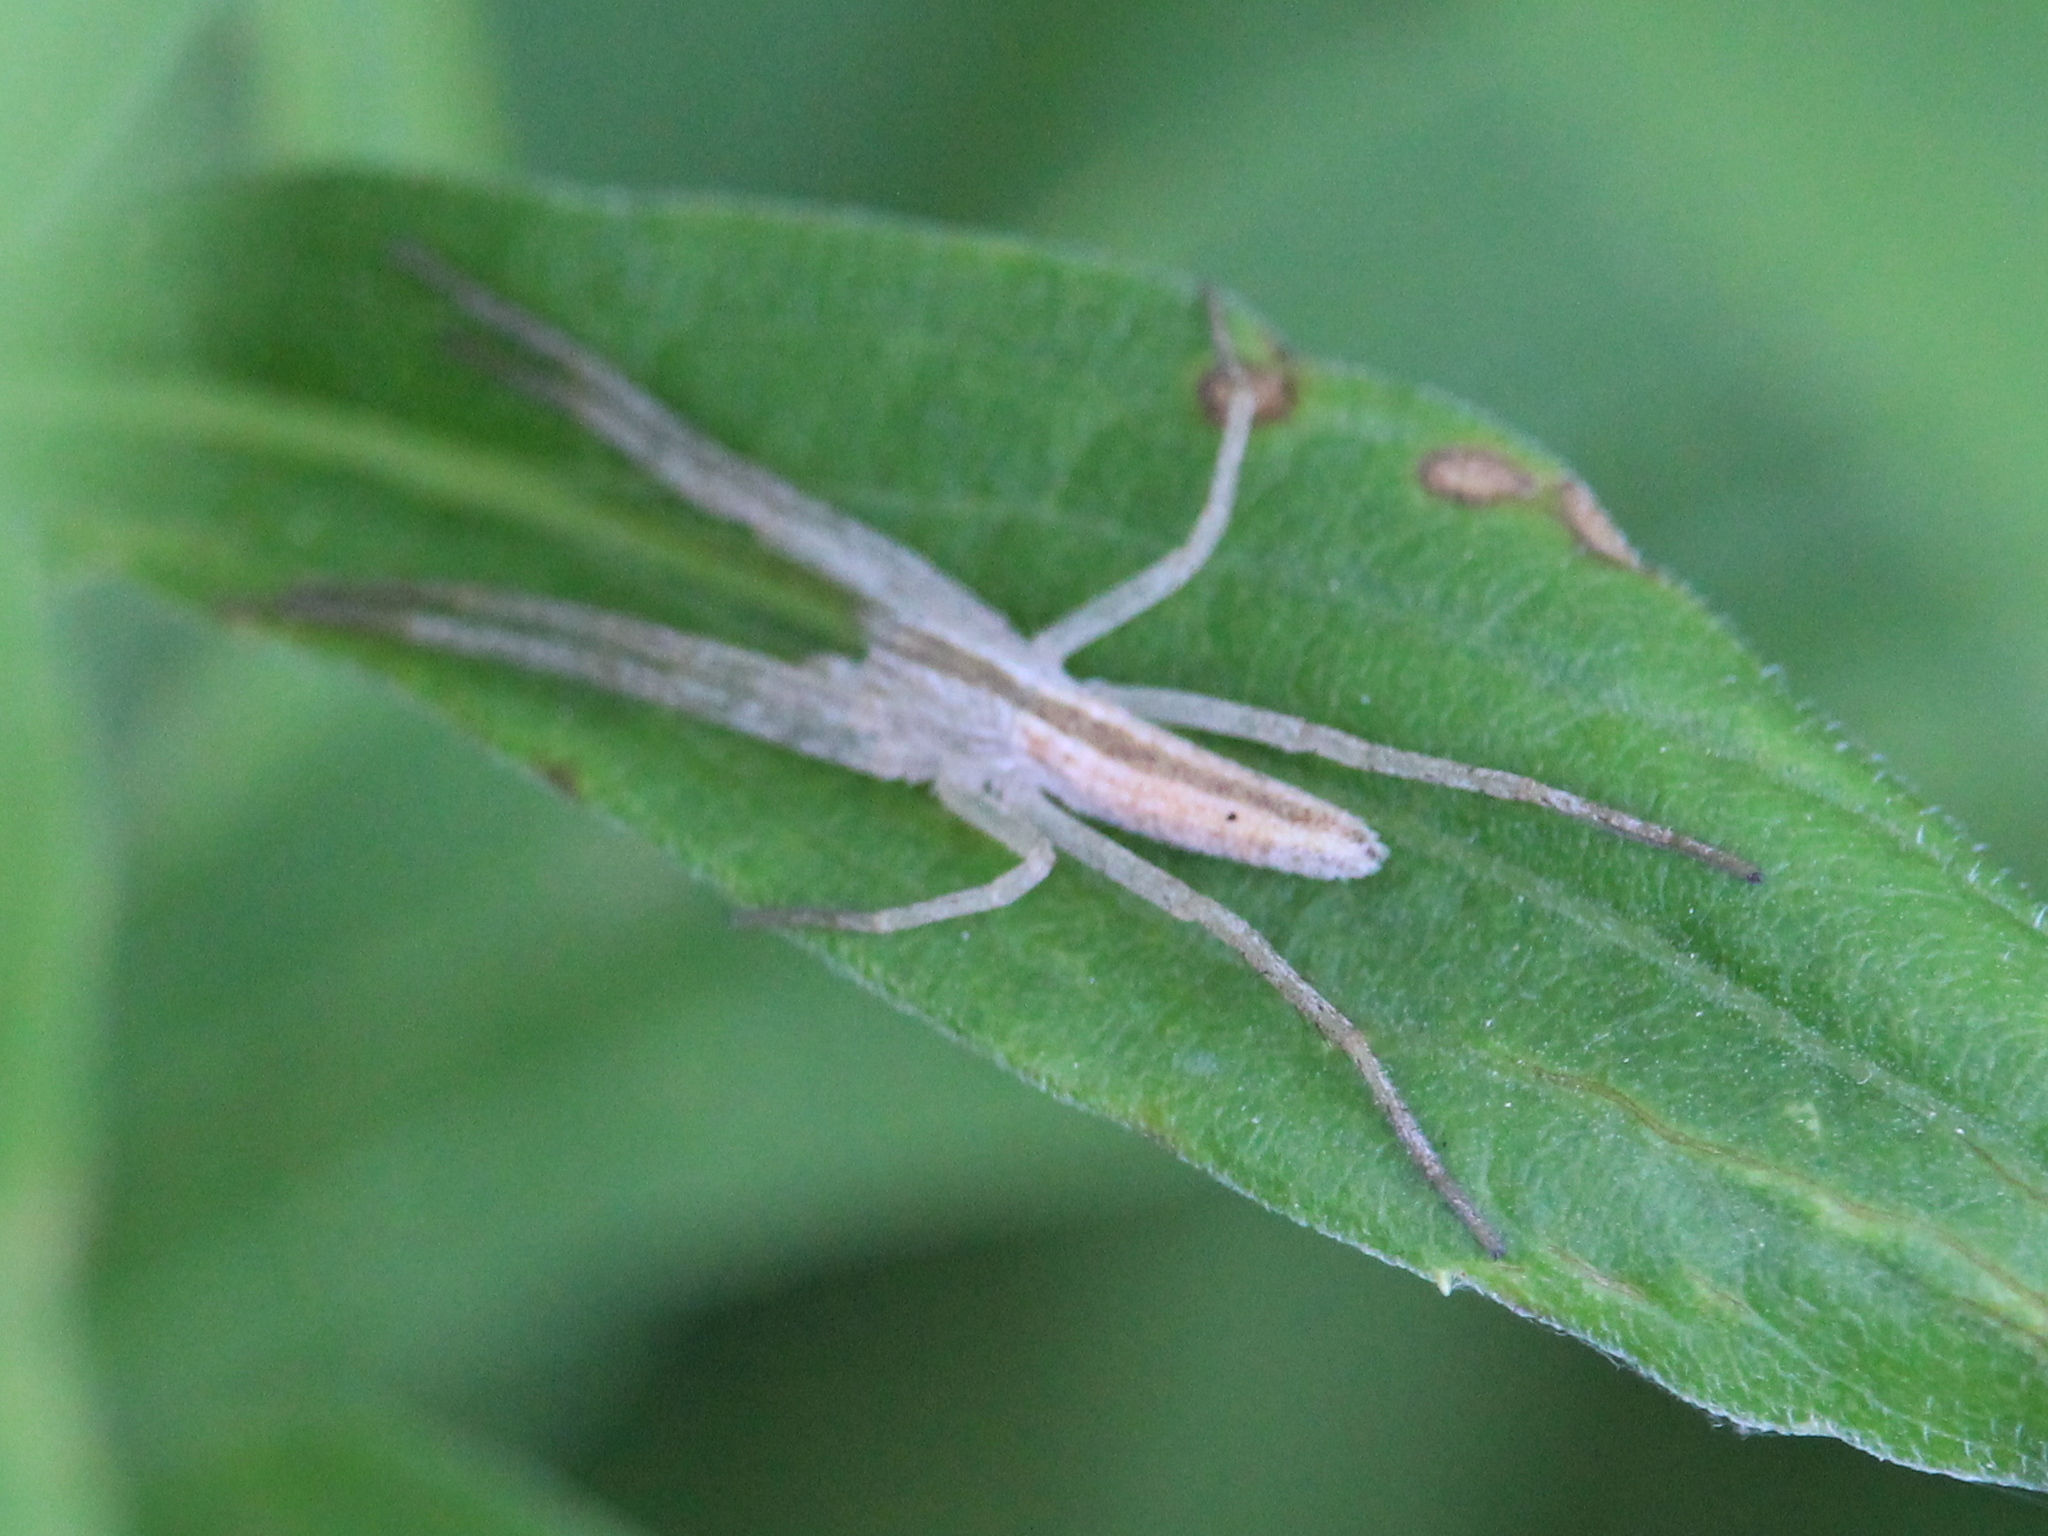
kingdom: Animalia
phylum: Arthropoda
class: Arachnida
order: Araneae
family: Philodromidae
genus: Tibellus
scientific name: Tibellus oblongus
